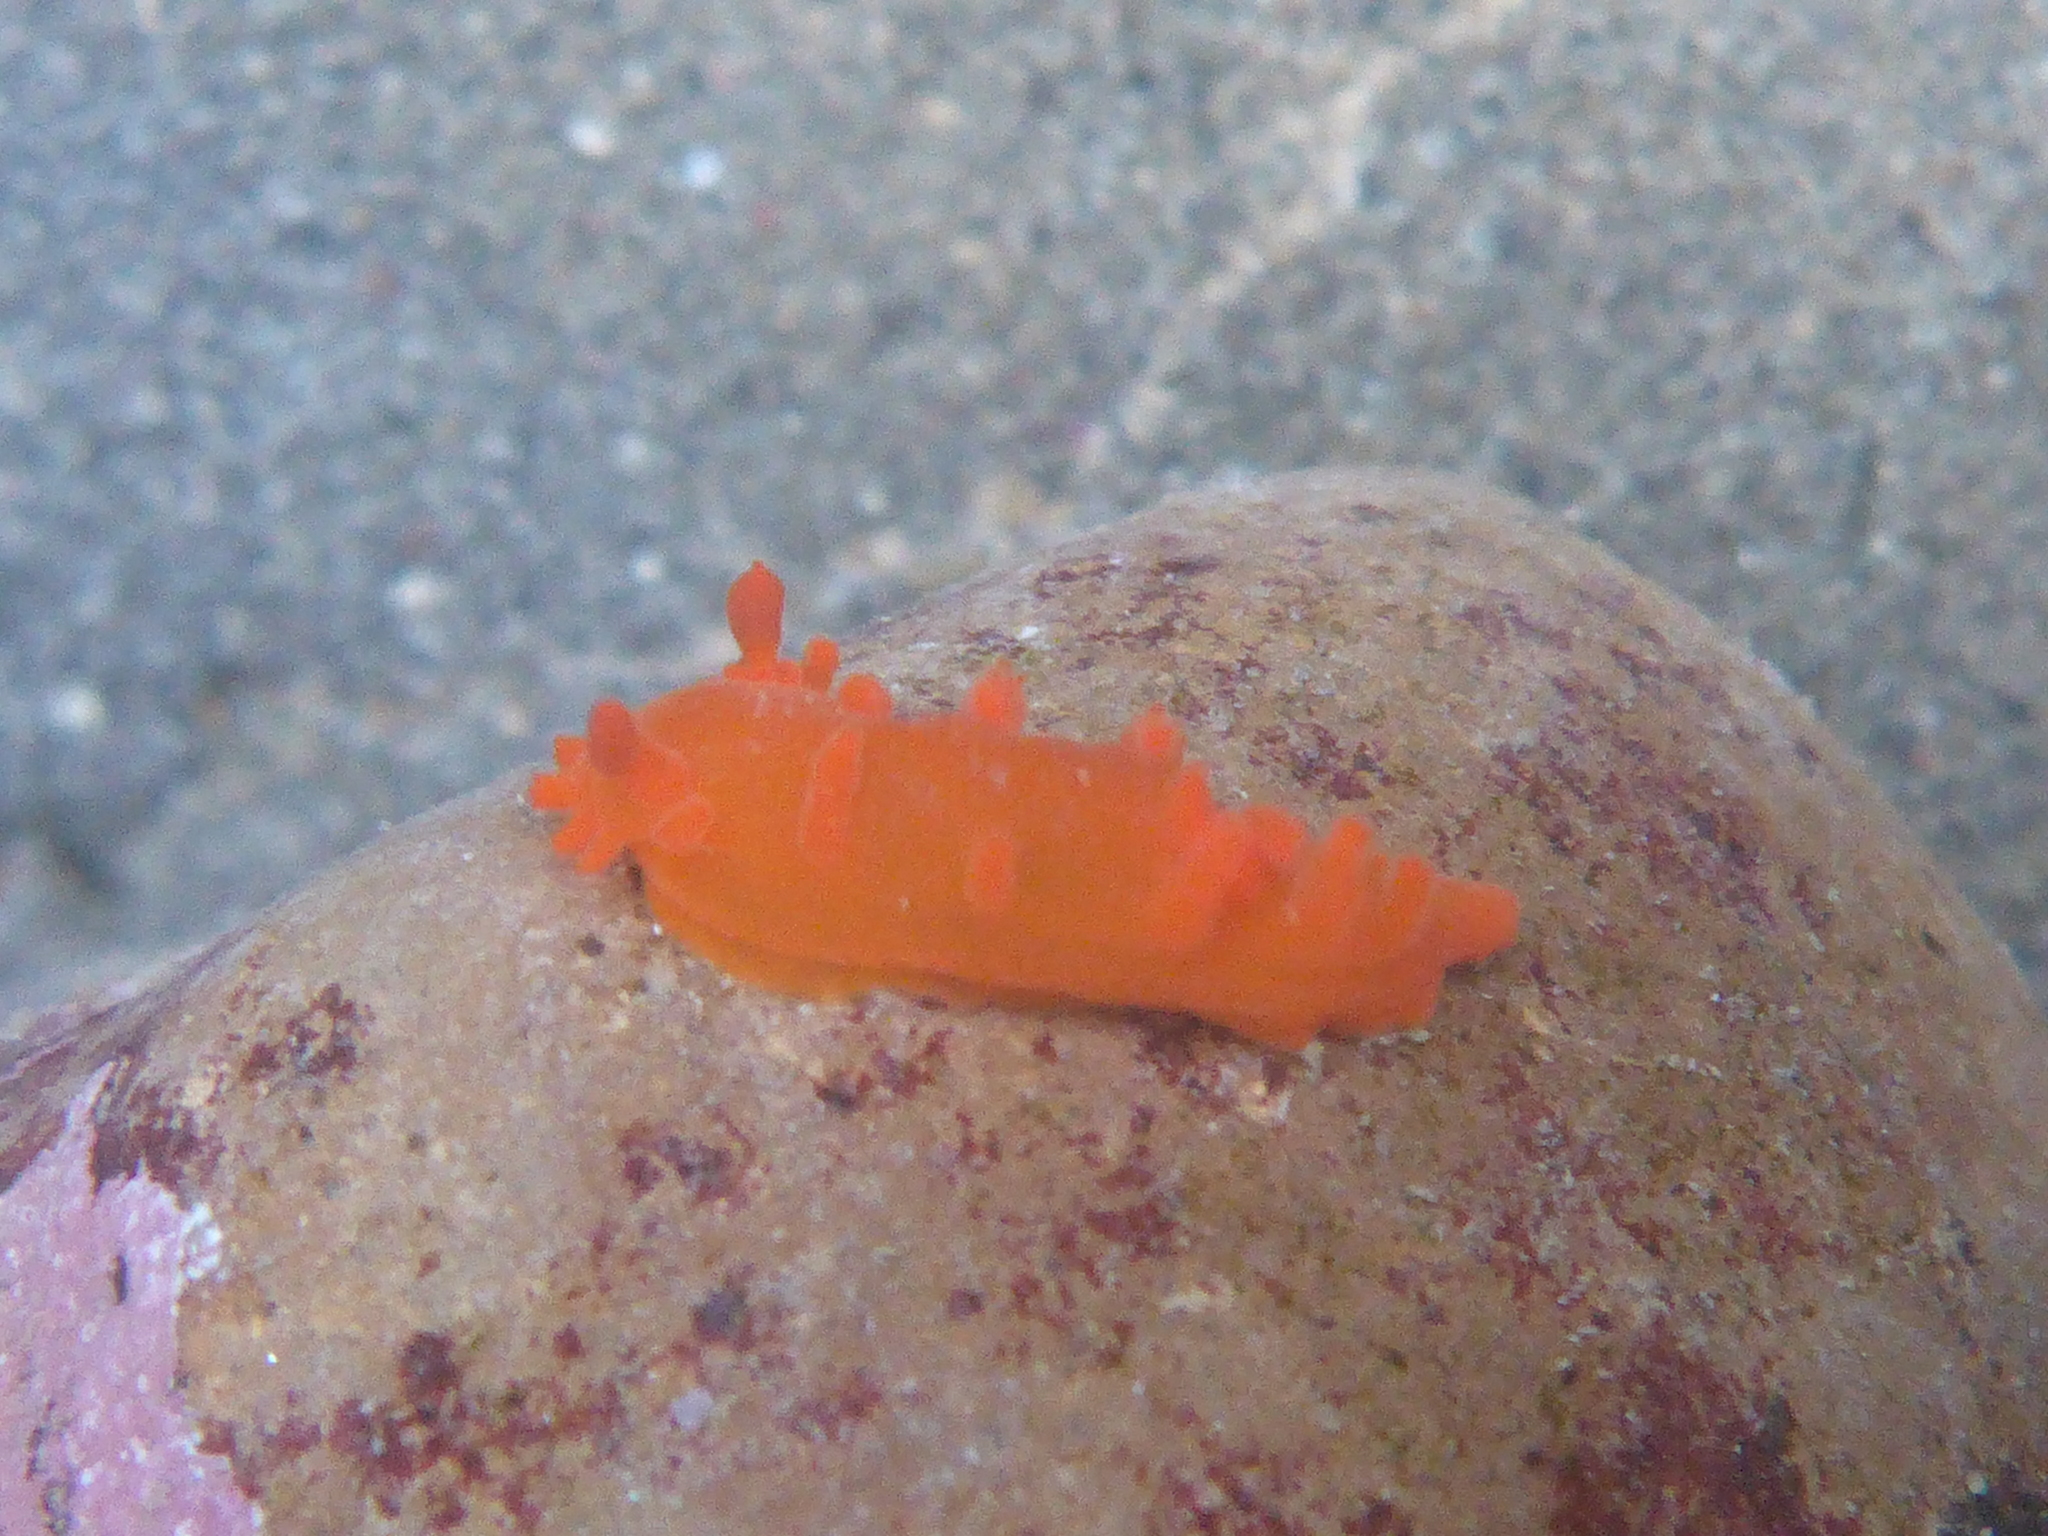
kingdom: Animalia
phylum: Mollusca
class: Gastropoda
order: Nudibranchia
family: Polyceridae
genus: Triopha
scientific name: Triopha maculata
